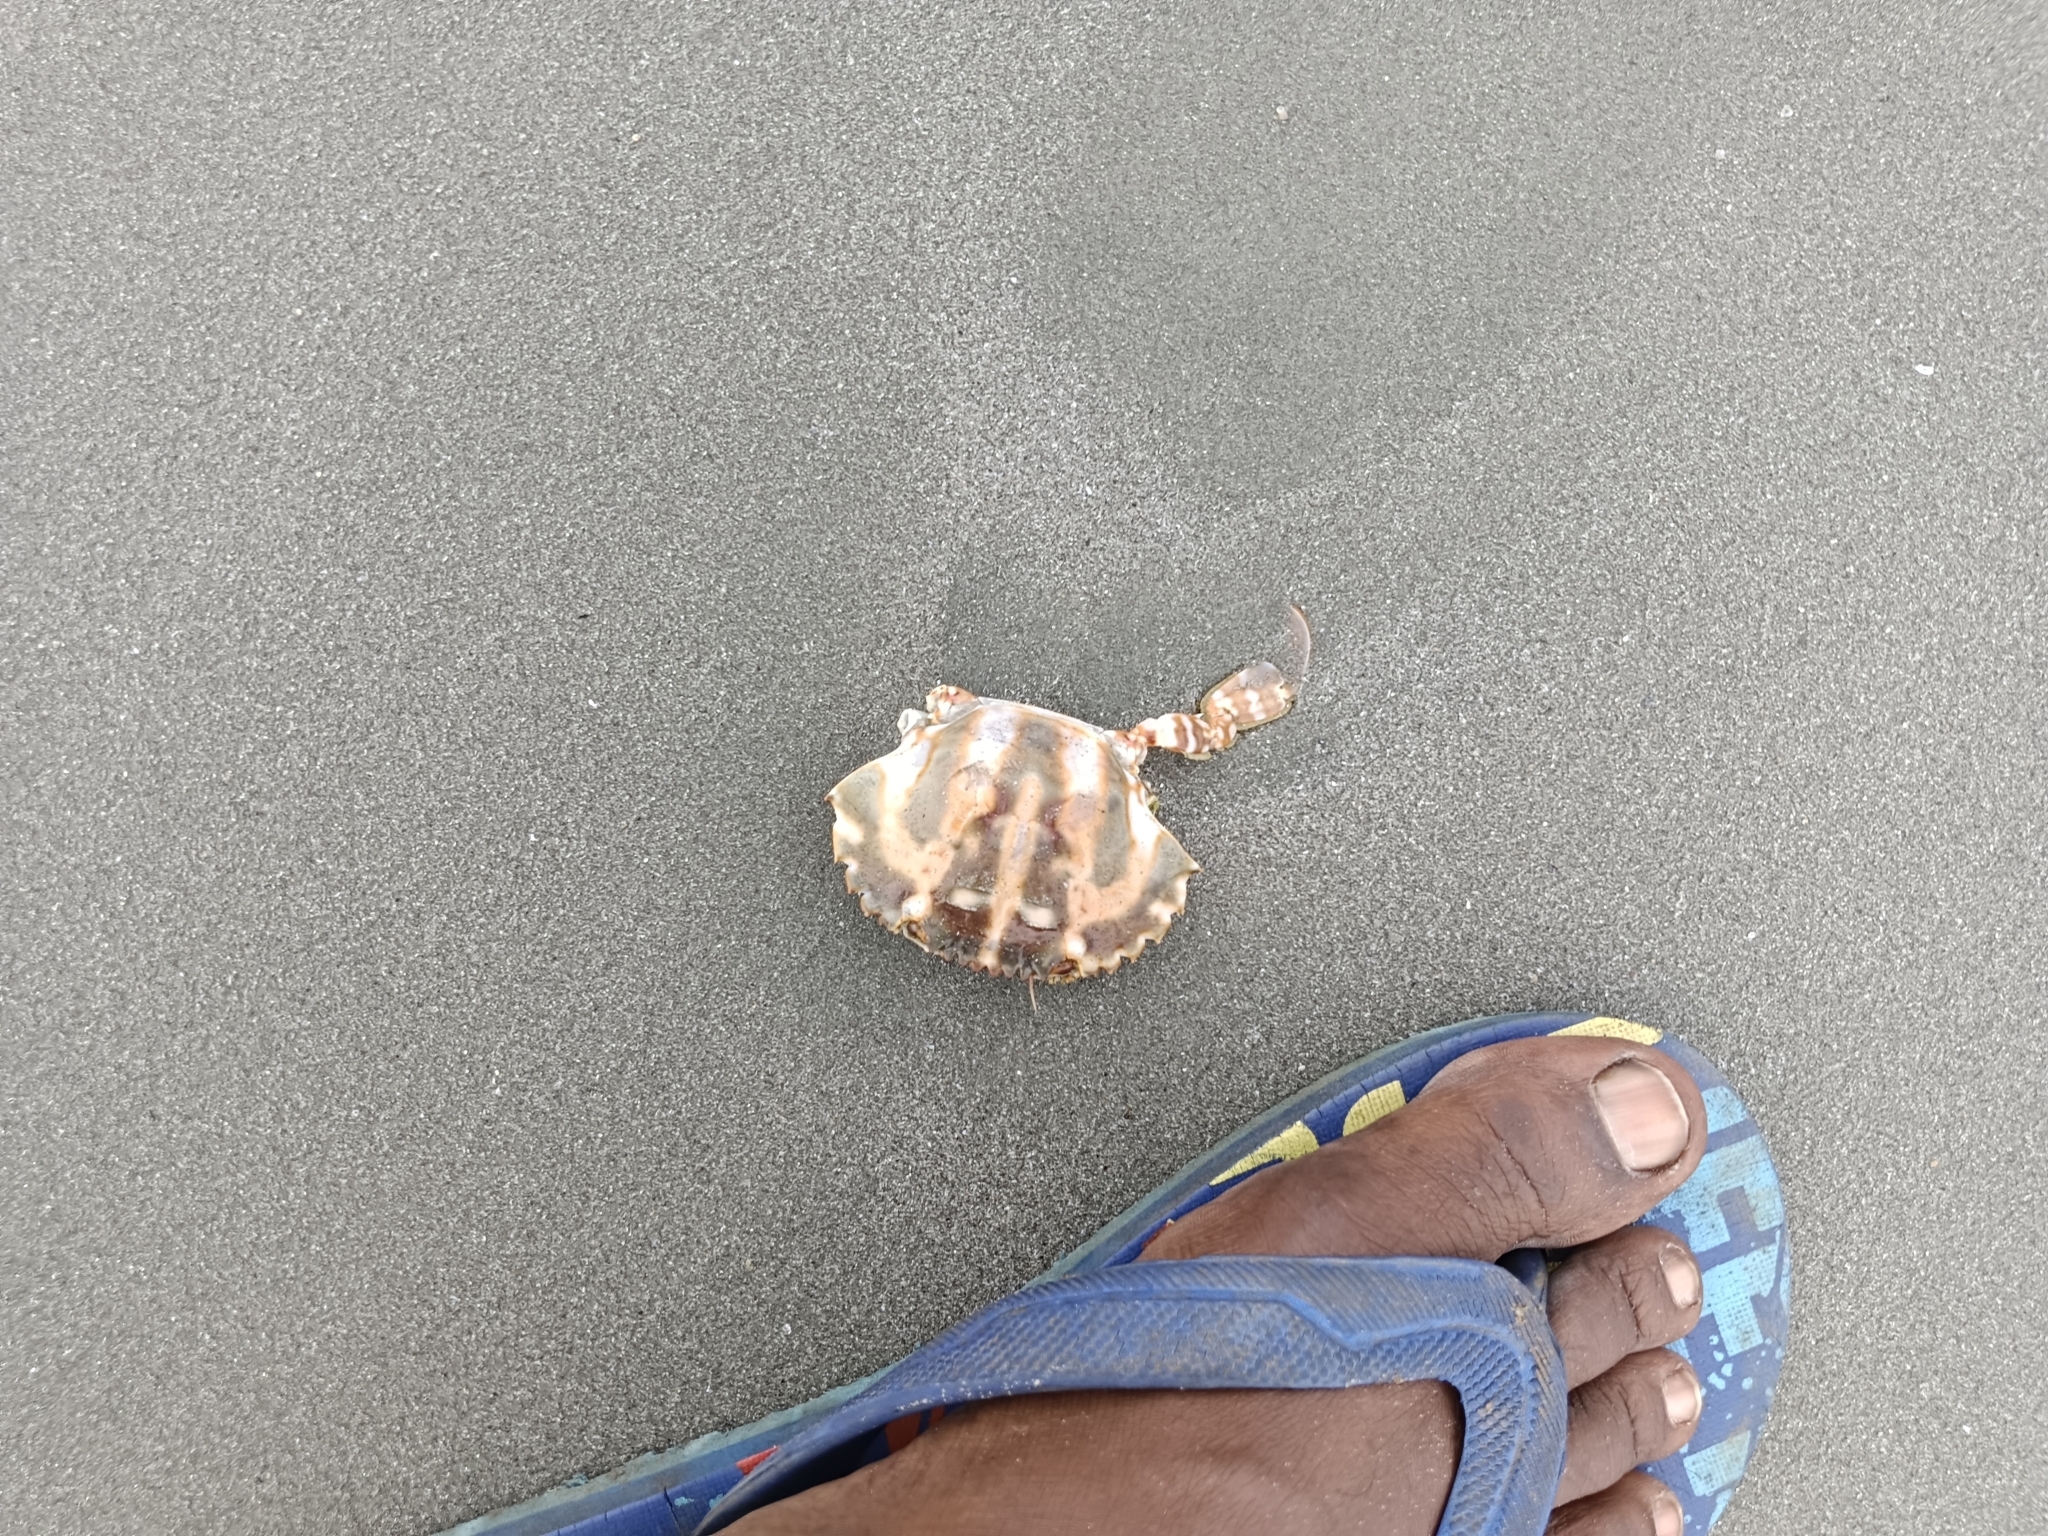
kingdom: Animalia
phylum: Arthropoda
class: Malacostraca
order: Decapoda
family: Portunidae
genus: Charybdis
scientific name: Charybdis feriata
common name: Striped swimming crab
